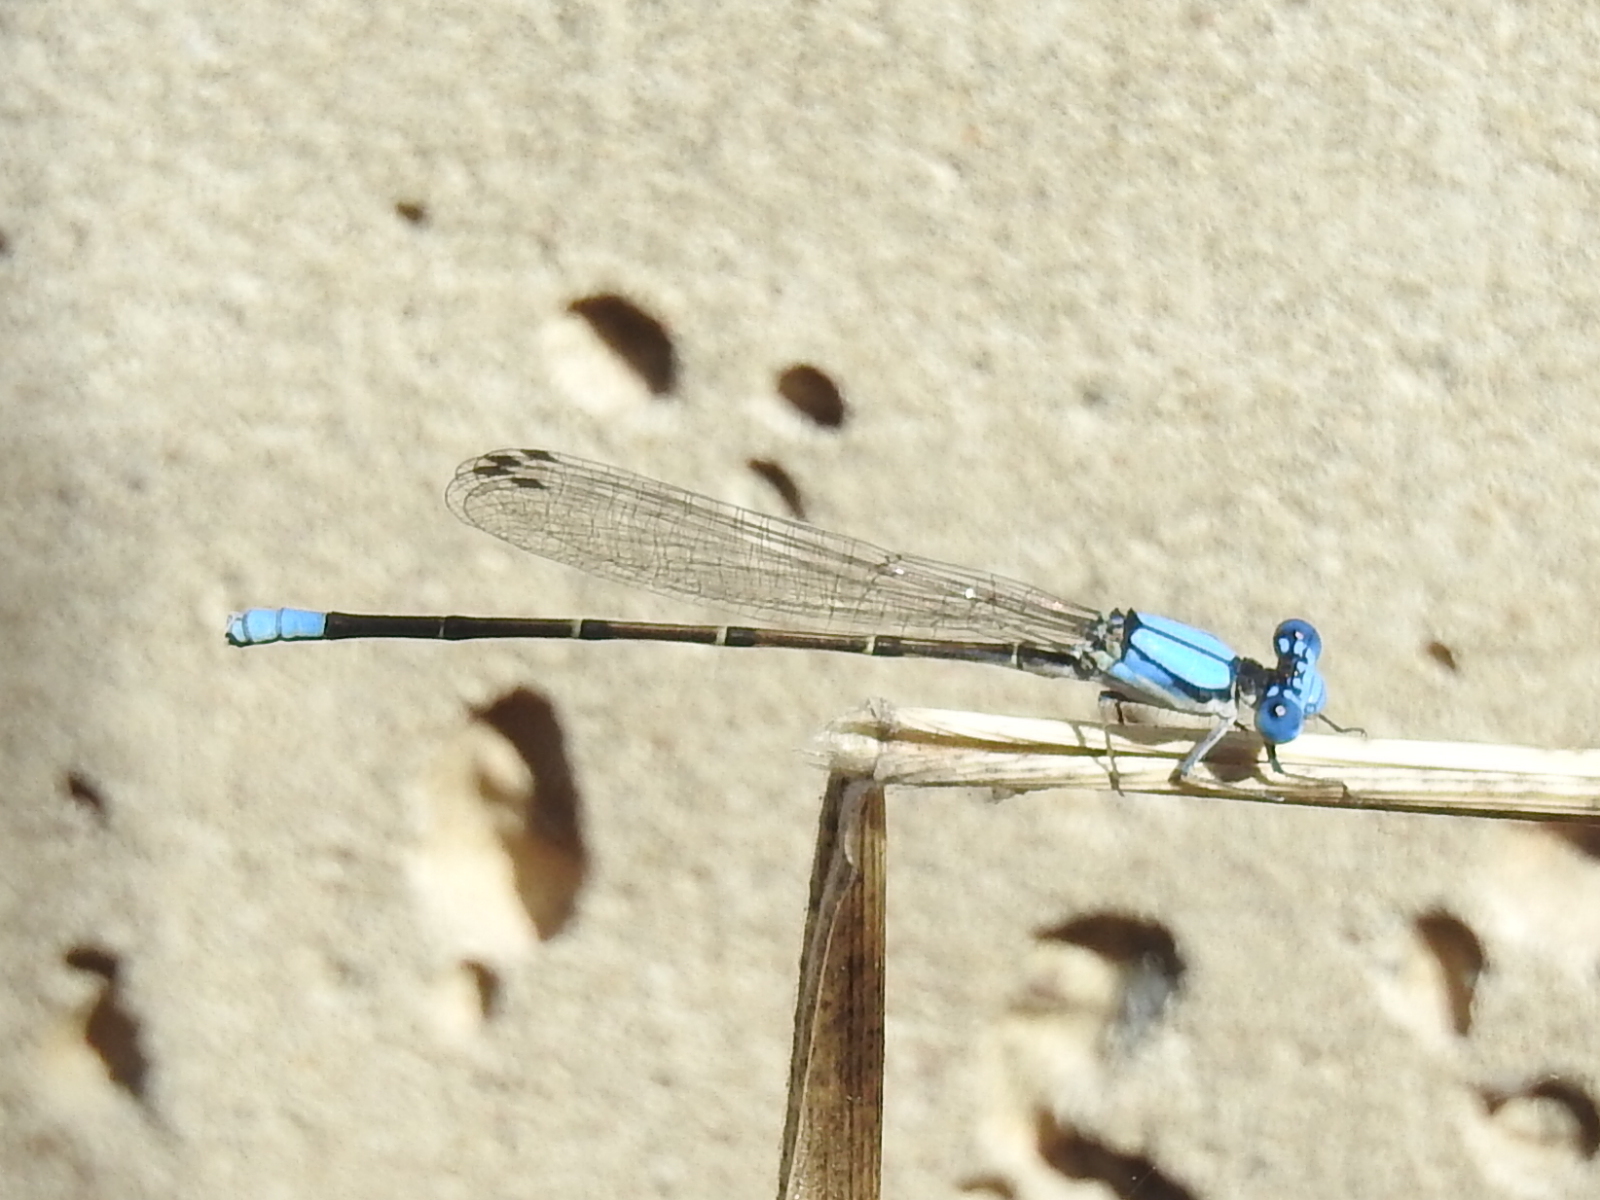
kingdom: Animalia
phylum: Arthropoda
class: Insecta
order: Odonata
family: Coenagrionidae
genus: Argia
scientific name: Argia apicalis
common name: Blue-fronted dancer
